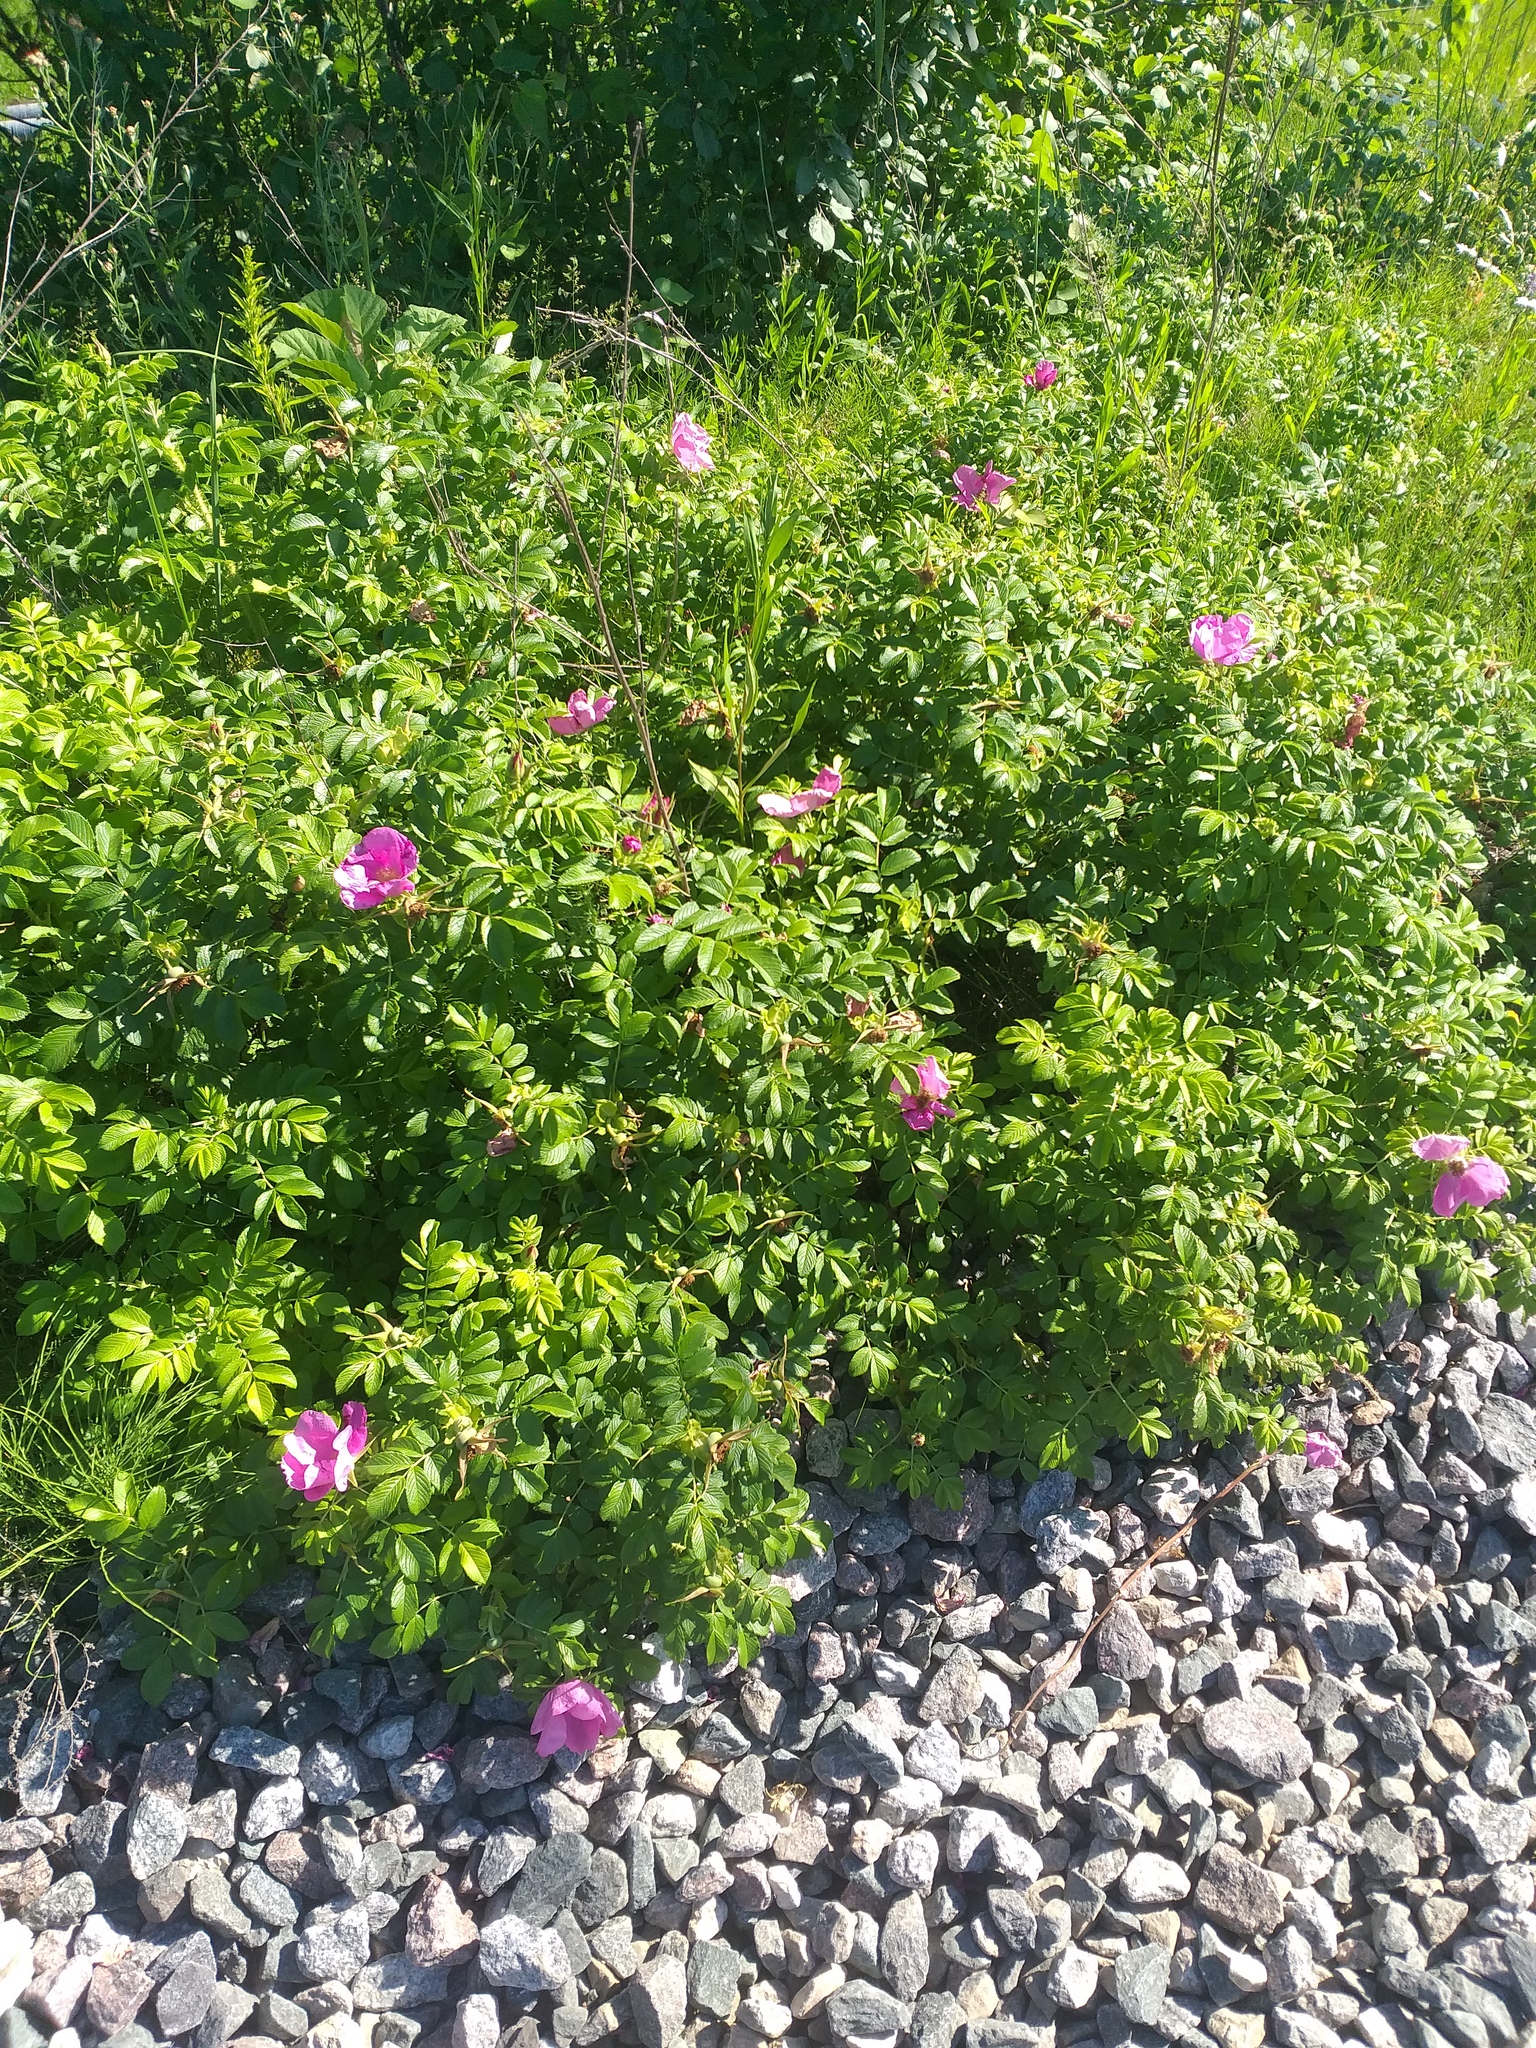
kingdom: Plantae
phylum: Tracheophyta
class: Magnoliopsida
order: Rosales
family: Rosaceae
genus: Rosa
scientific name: Rosa rugosa
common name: Japanese rose
